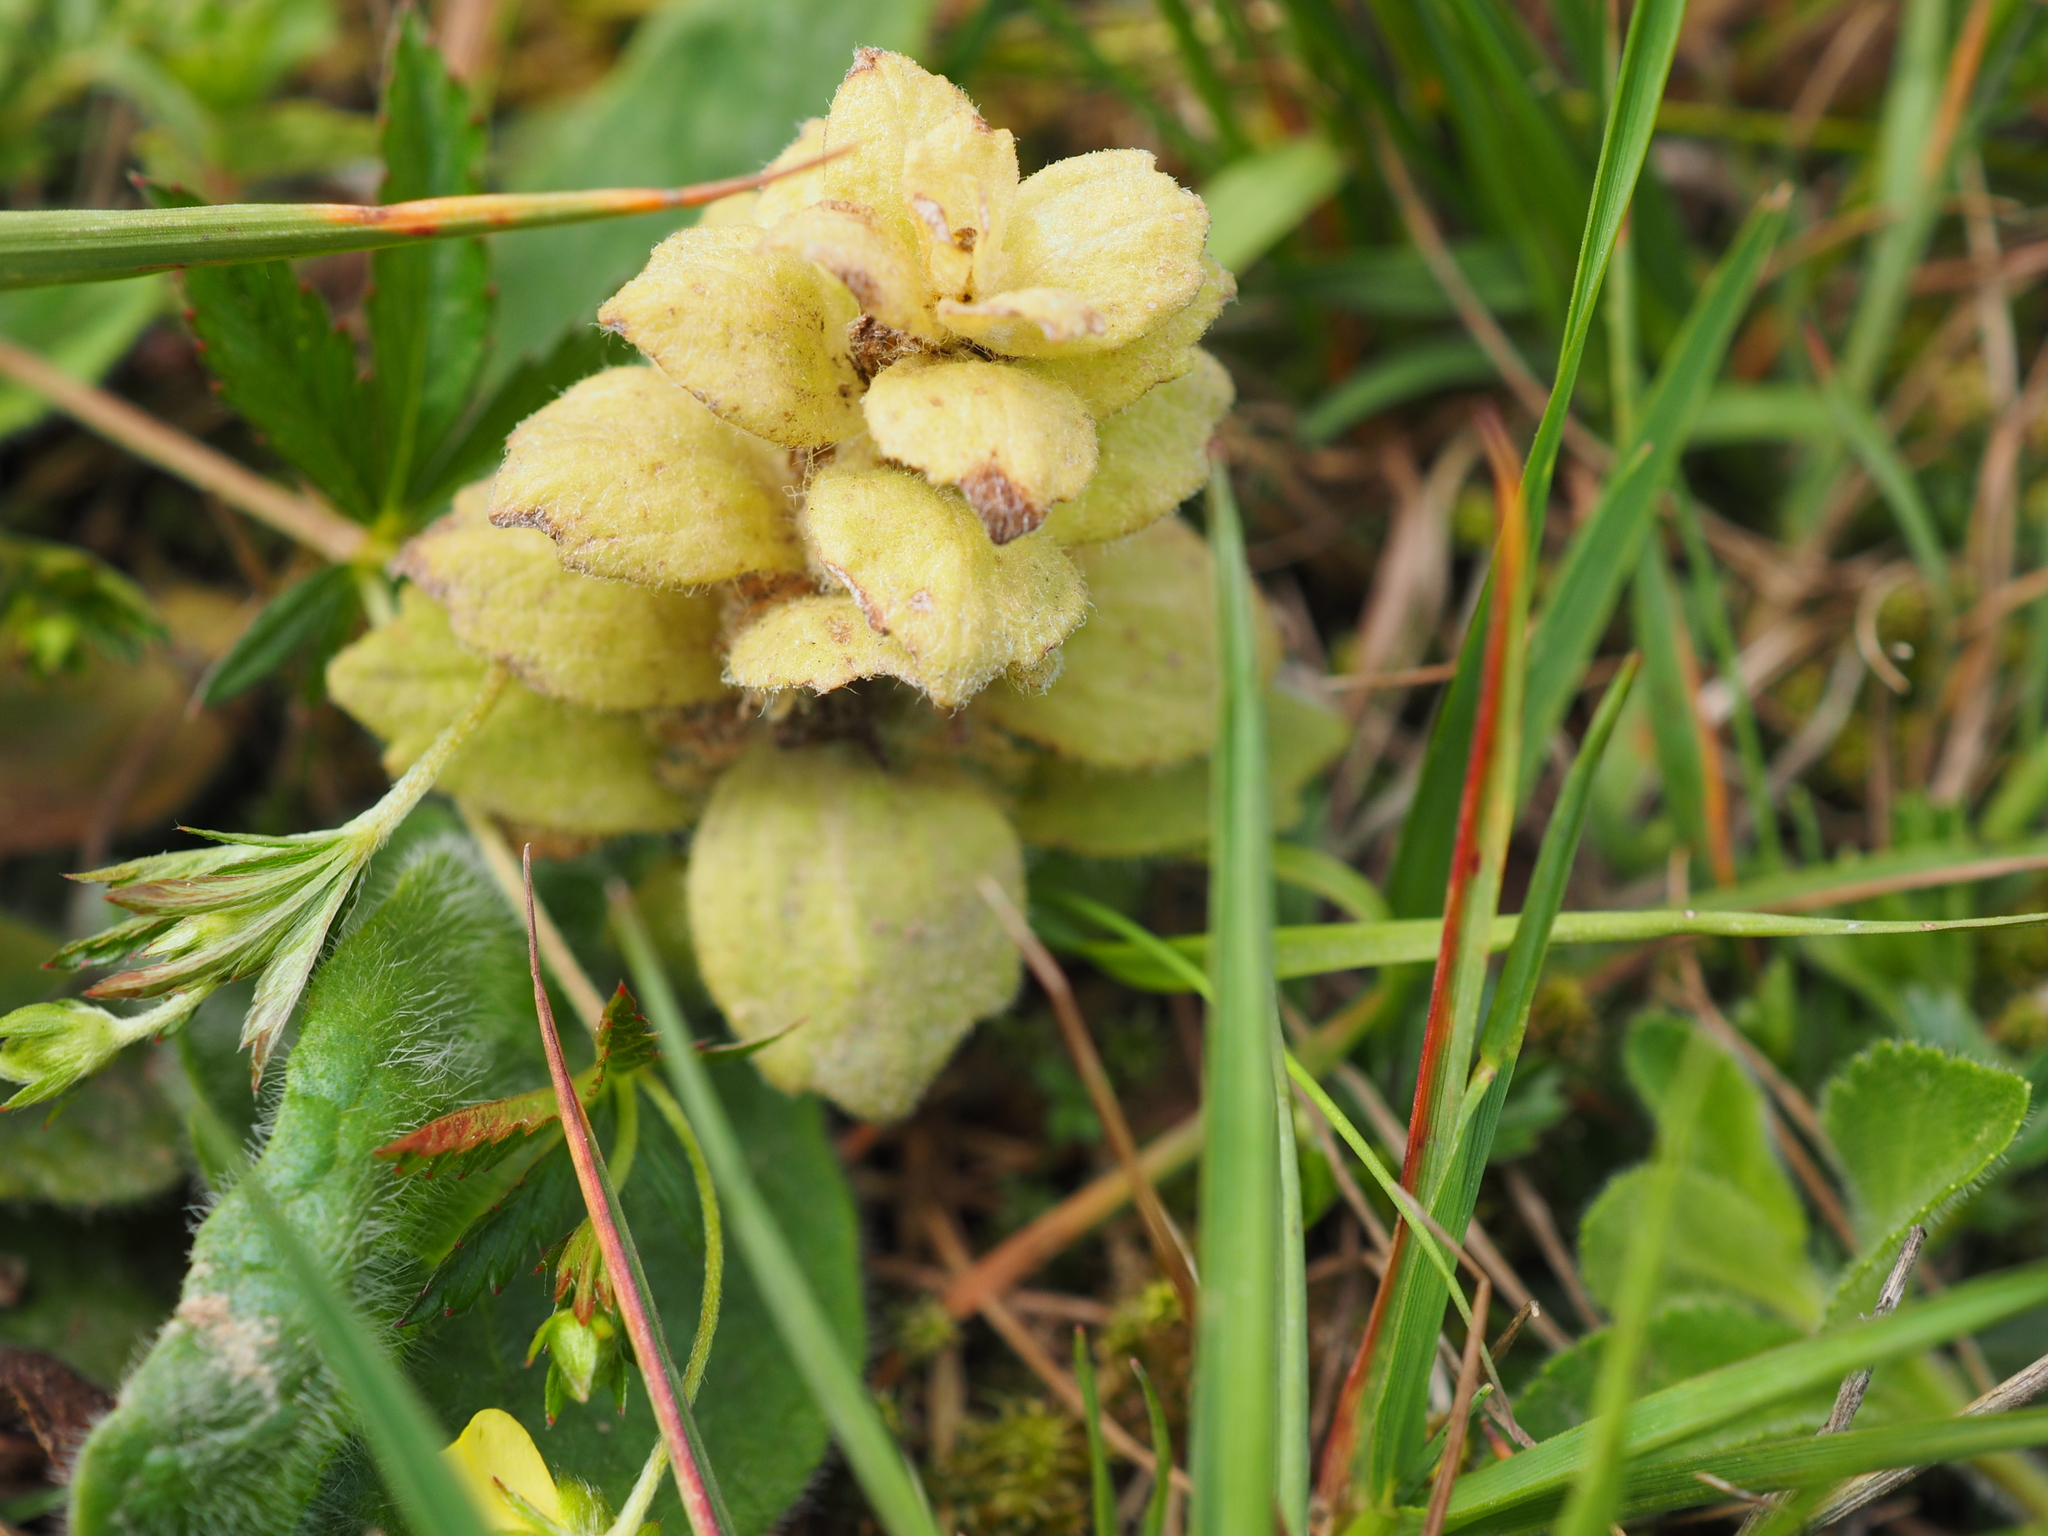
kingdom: Plantae
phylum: Tracheophyta
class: Magnoliopsida
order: Lamiales
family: Lamiaceae
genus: Ajuga
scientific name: Ajuga pyramidalis
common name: Pyramid bugle
